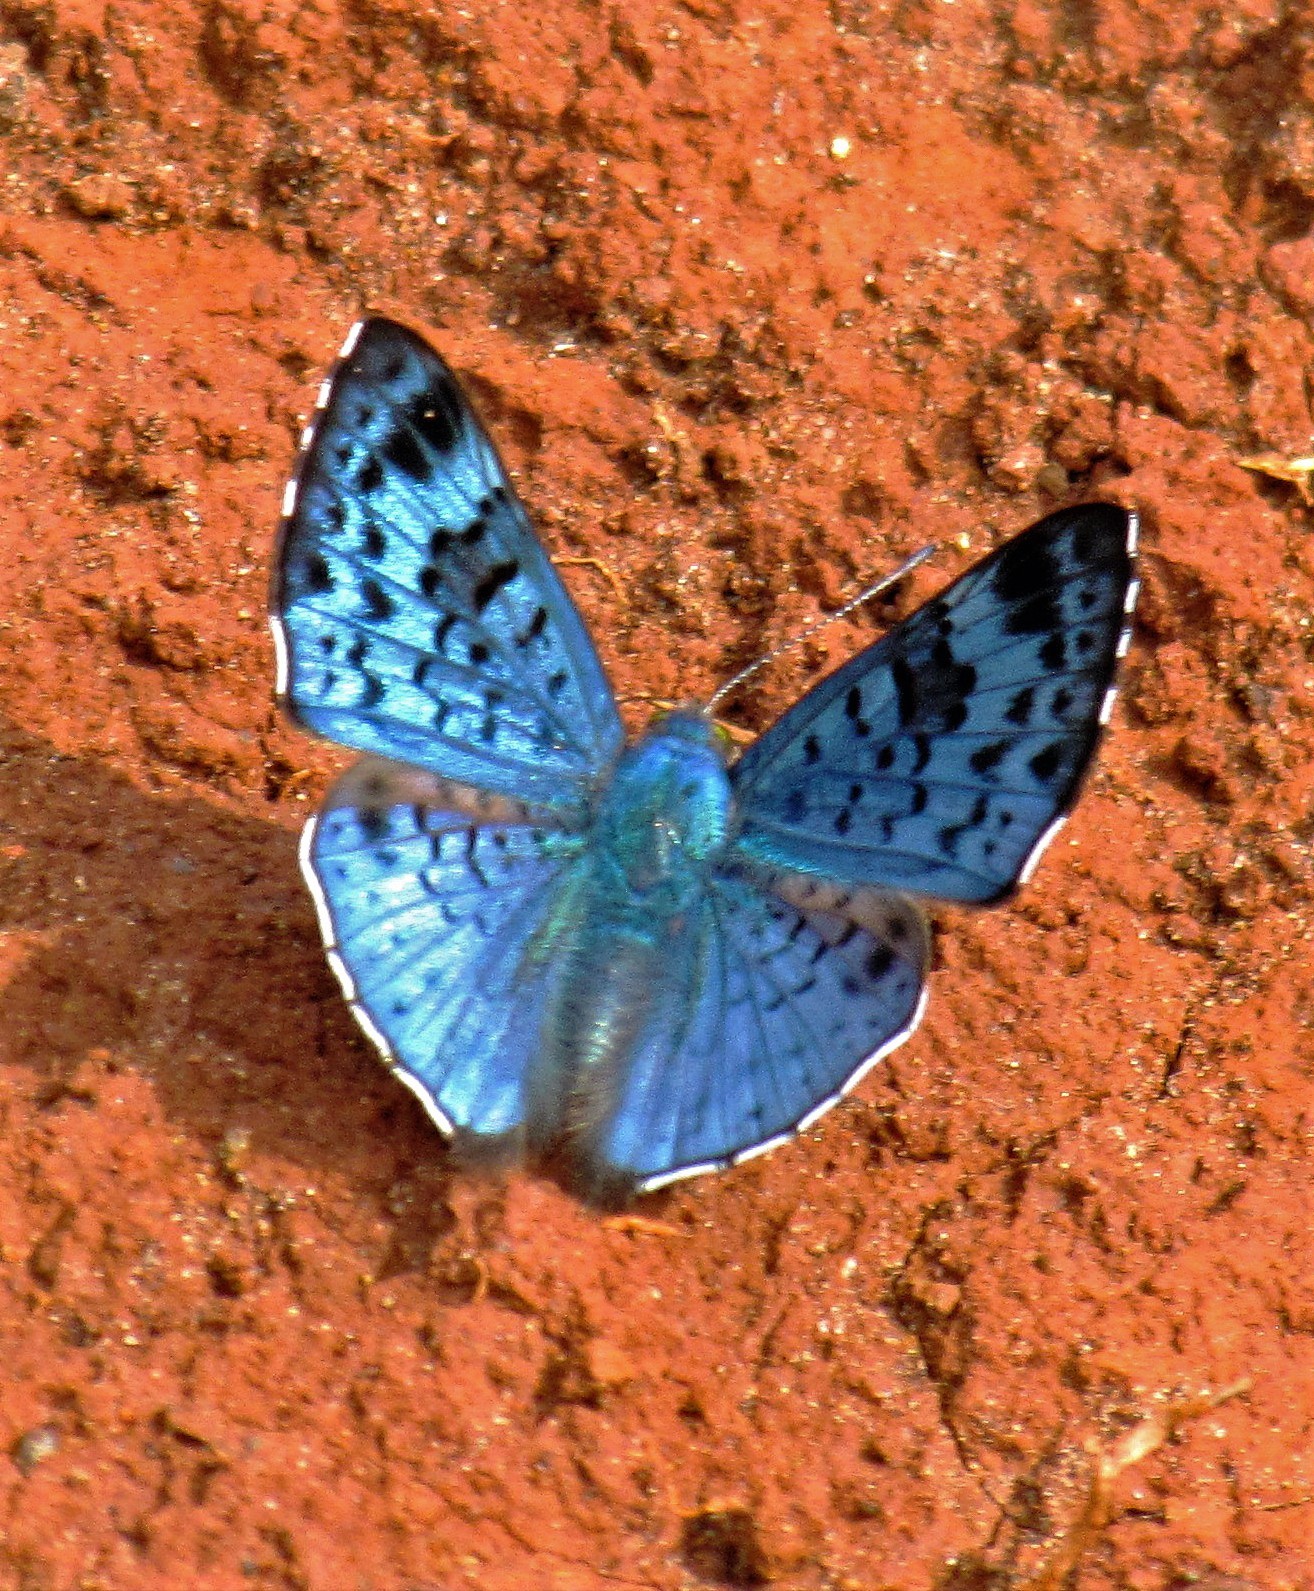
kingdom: Animalia
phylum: Arthropoda
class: Insecta
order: Lepidoptera
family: Riodinidae
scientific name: Riodinidae
